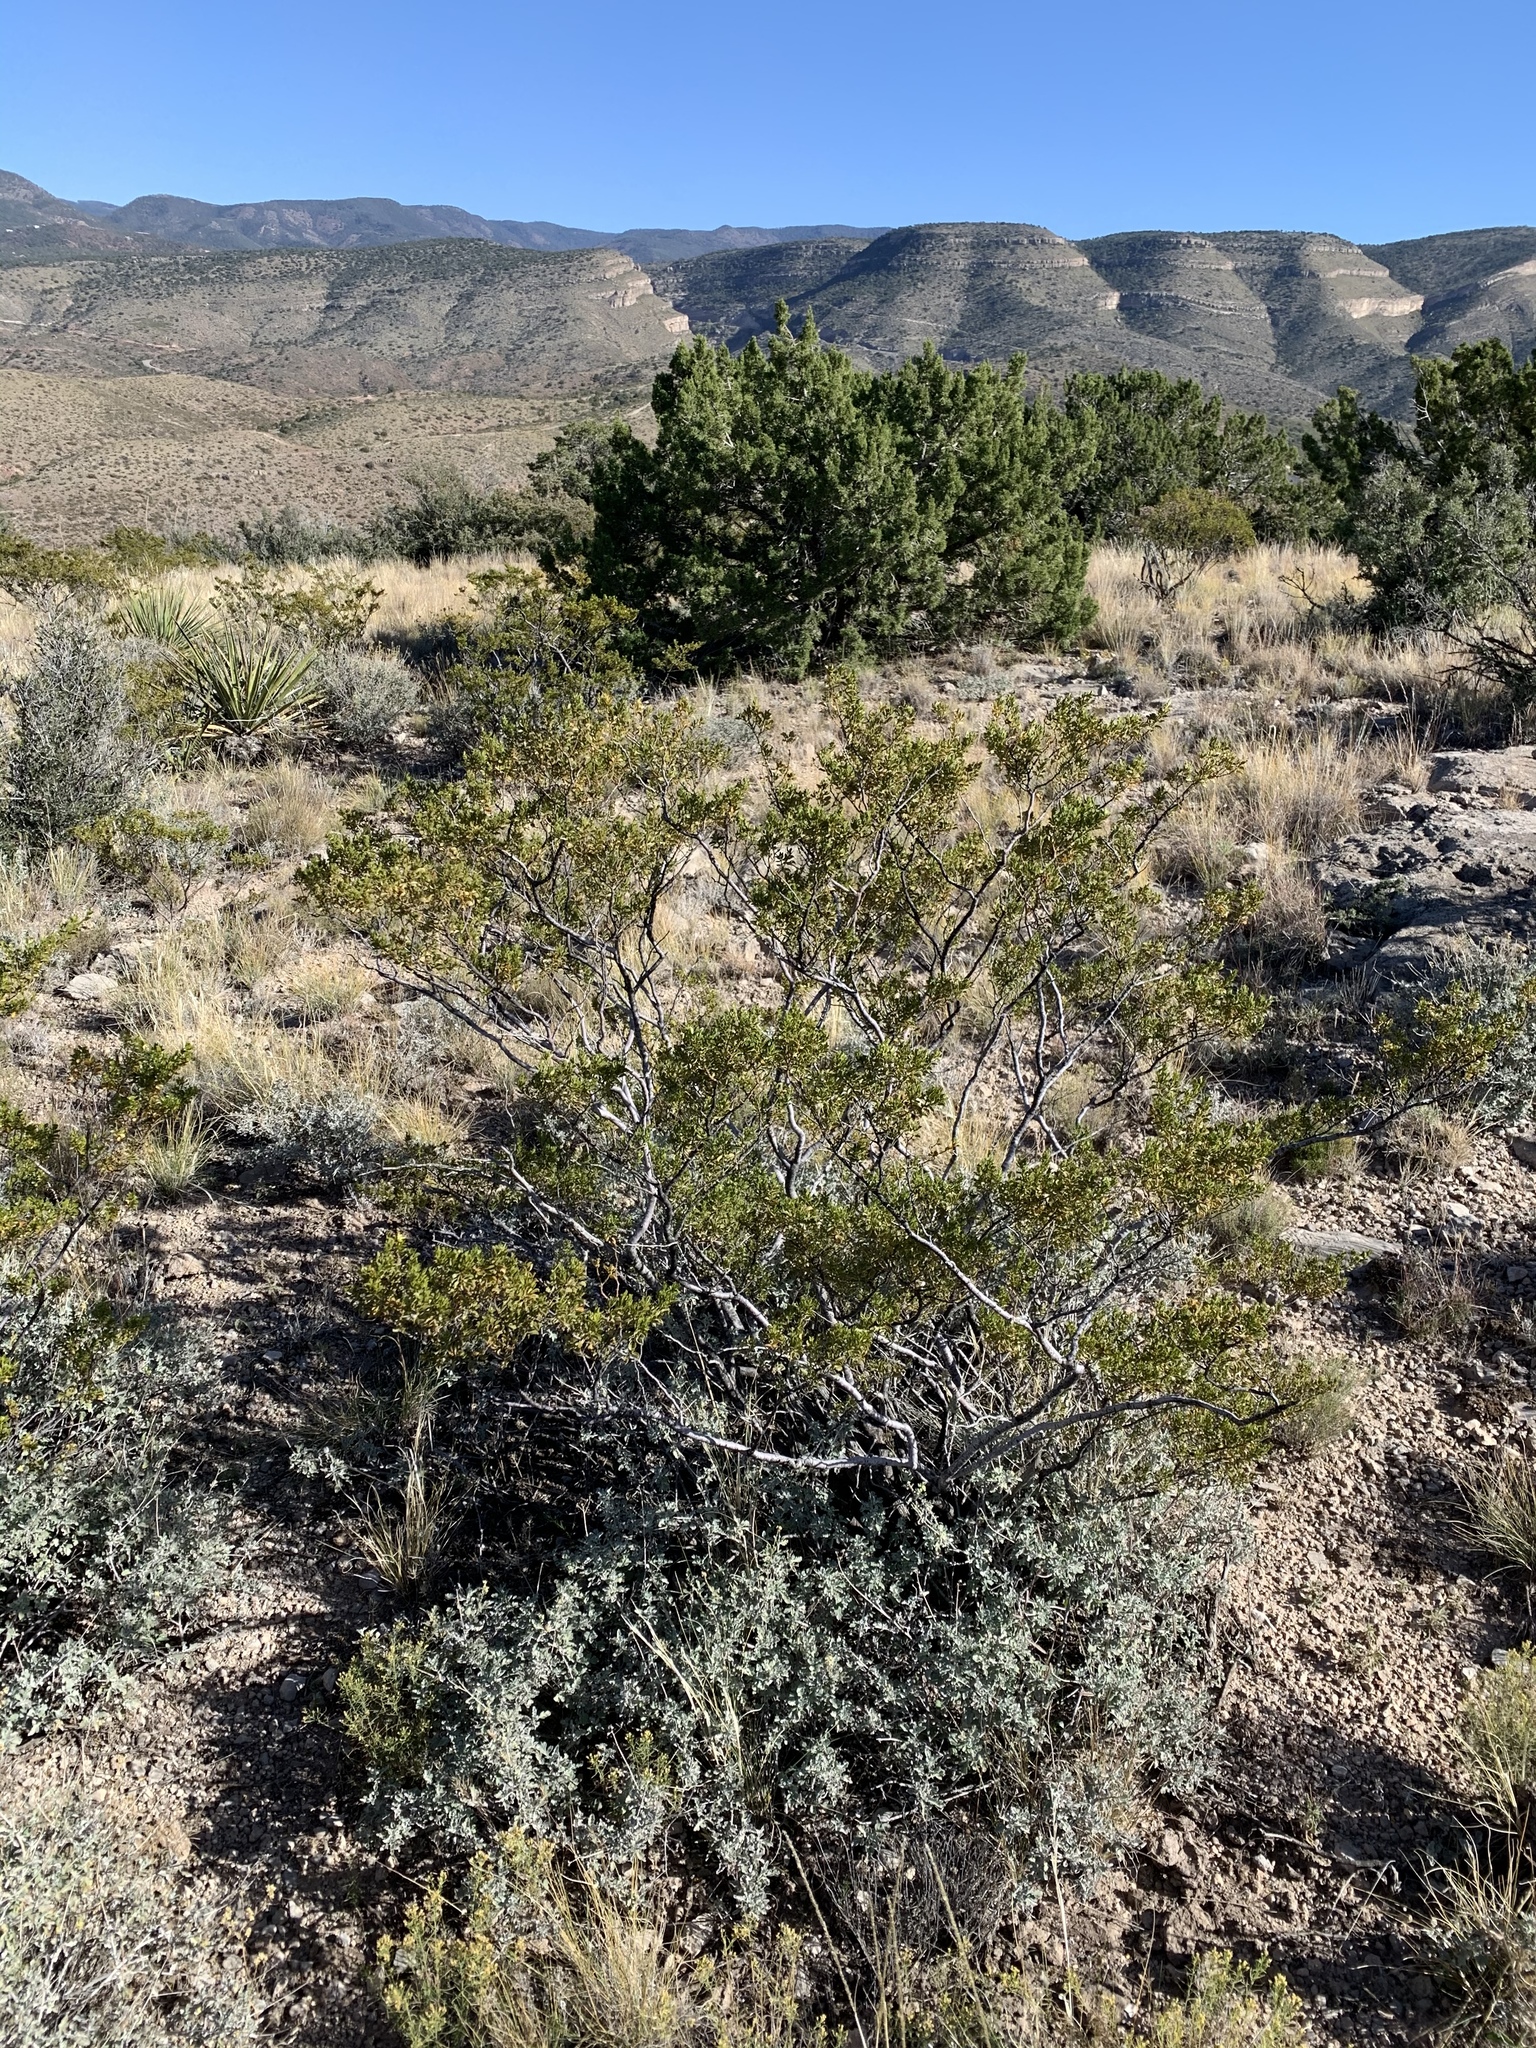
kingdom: Plantae
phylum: Tracheophyta
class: Magnoliopsida
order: Zygophyllales
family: Zygophyllaceae
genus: Larrea
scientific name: Larrea tridentata
